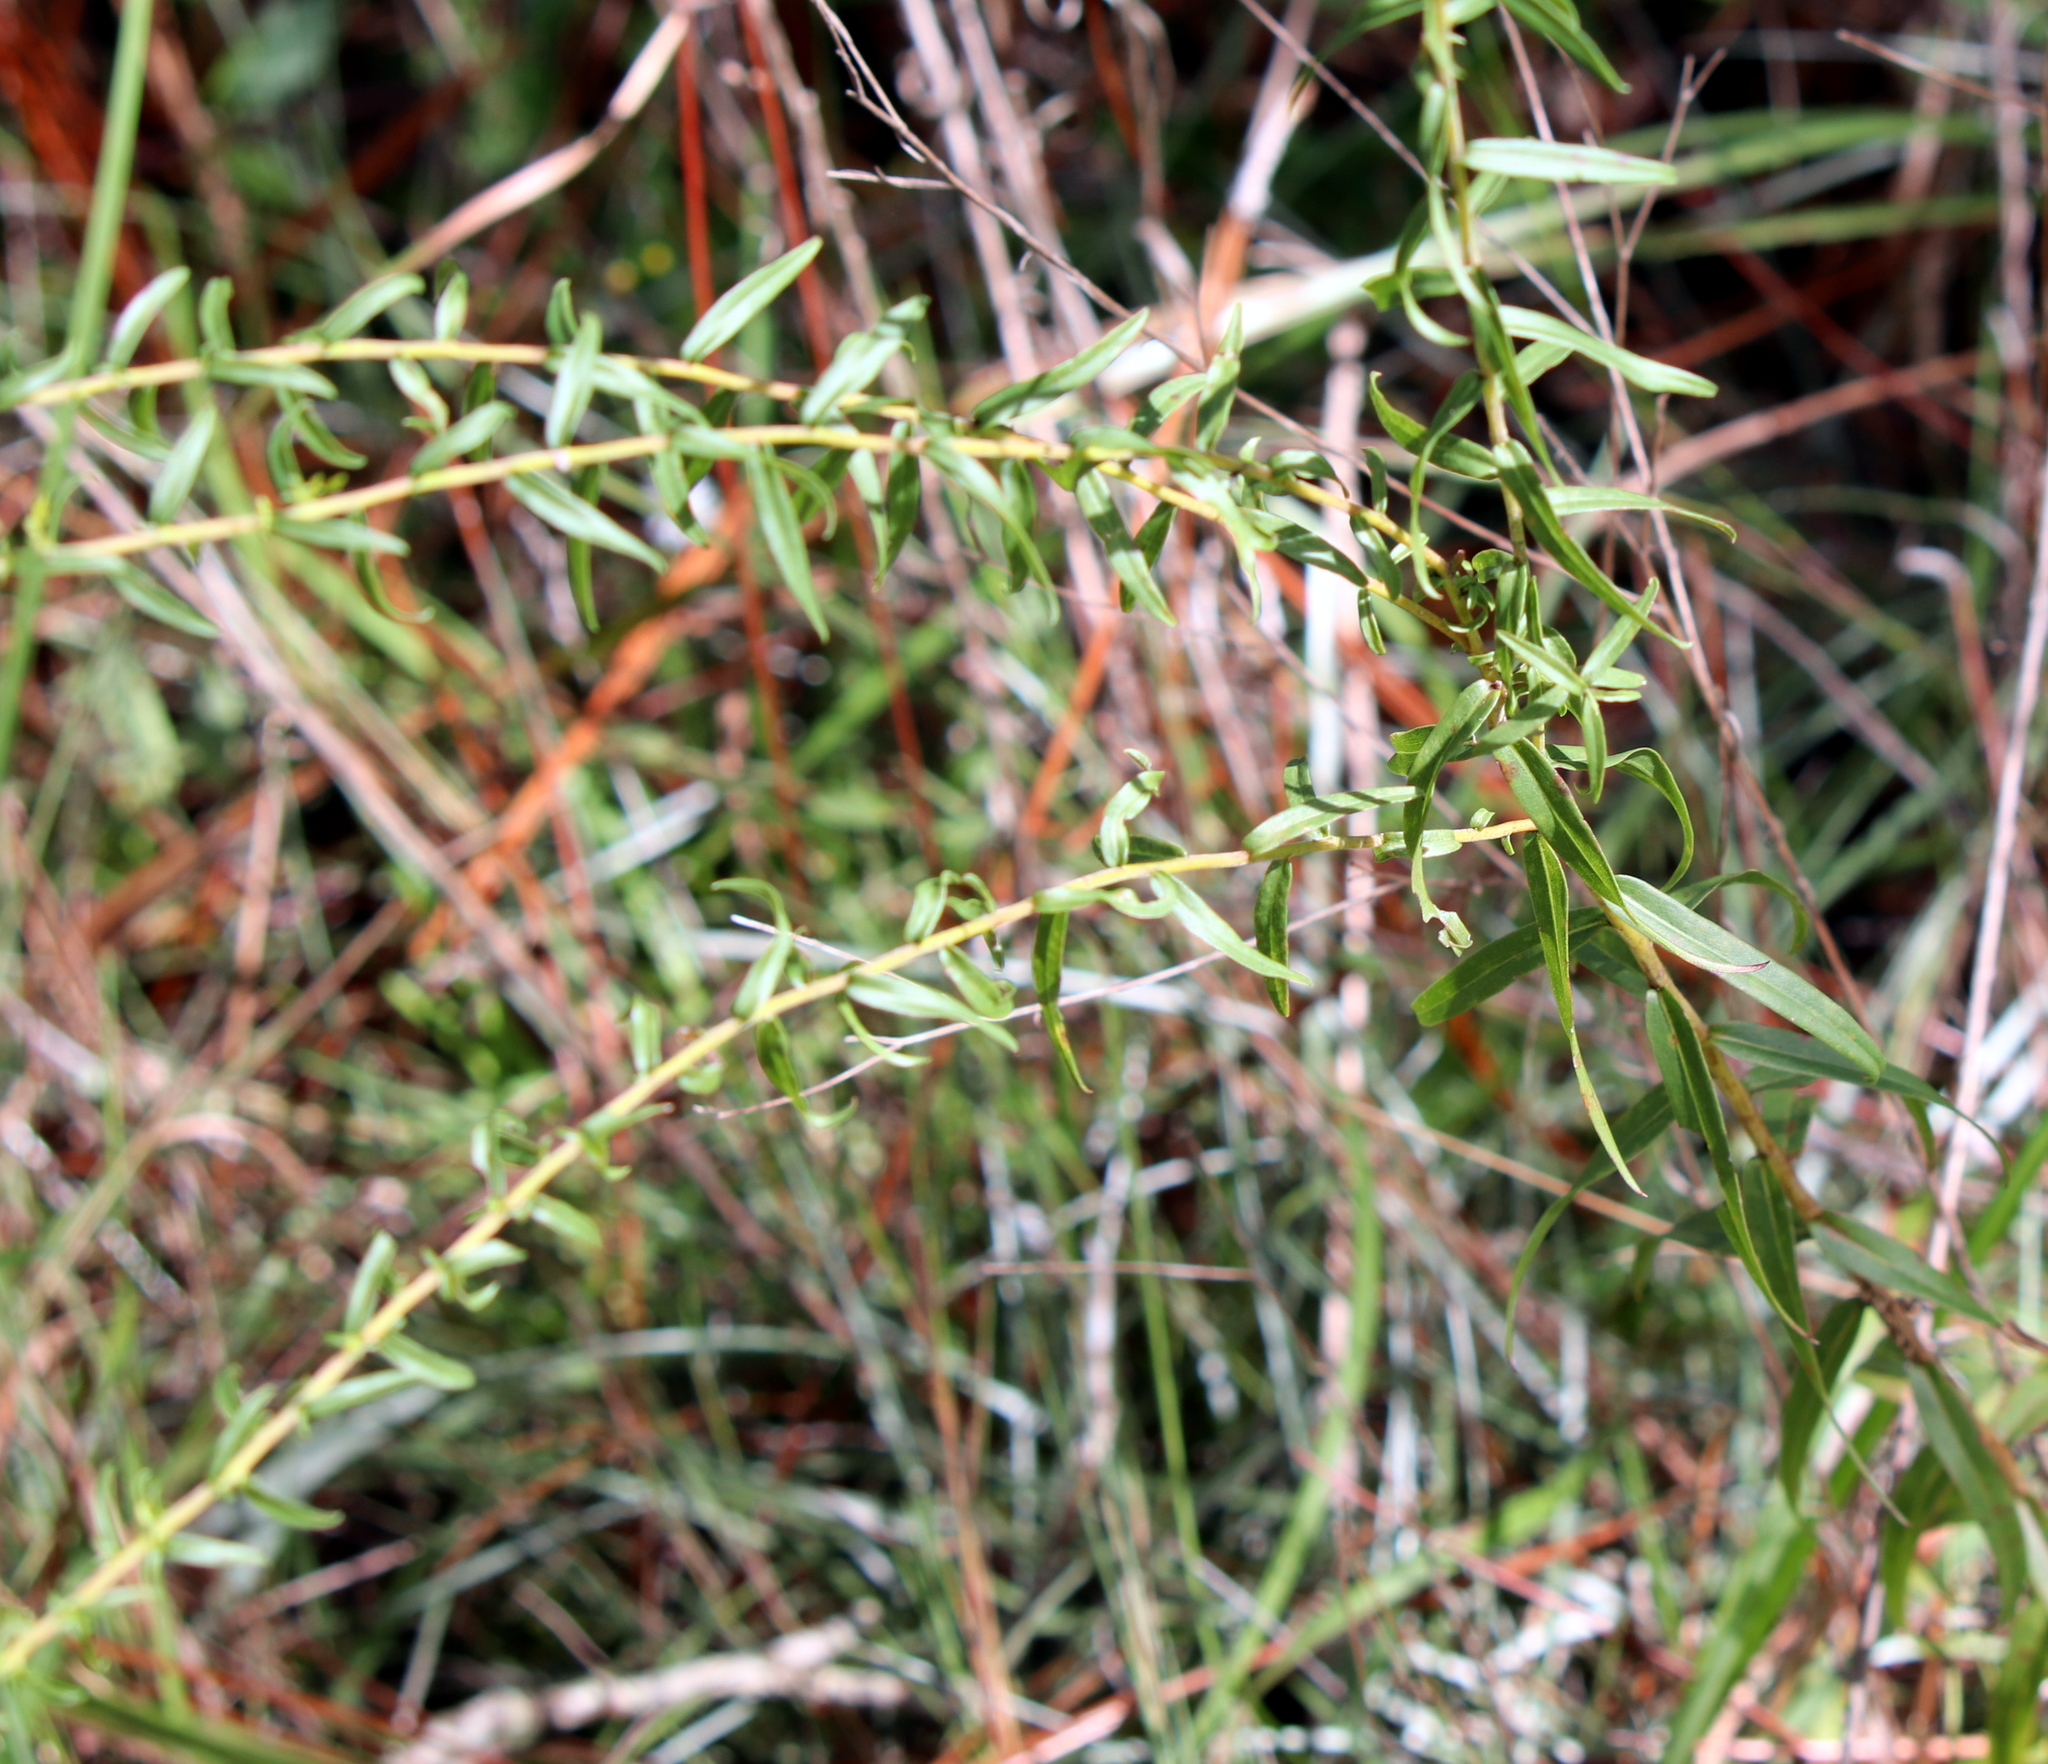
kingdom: Plantae
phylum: Tracheophyta
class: Magnoliopsida
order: Asterales
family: Asteraceae
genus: Solidago
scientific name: Solidago odora
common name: Anise-scented goldenrod
